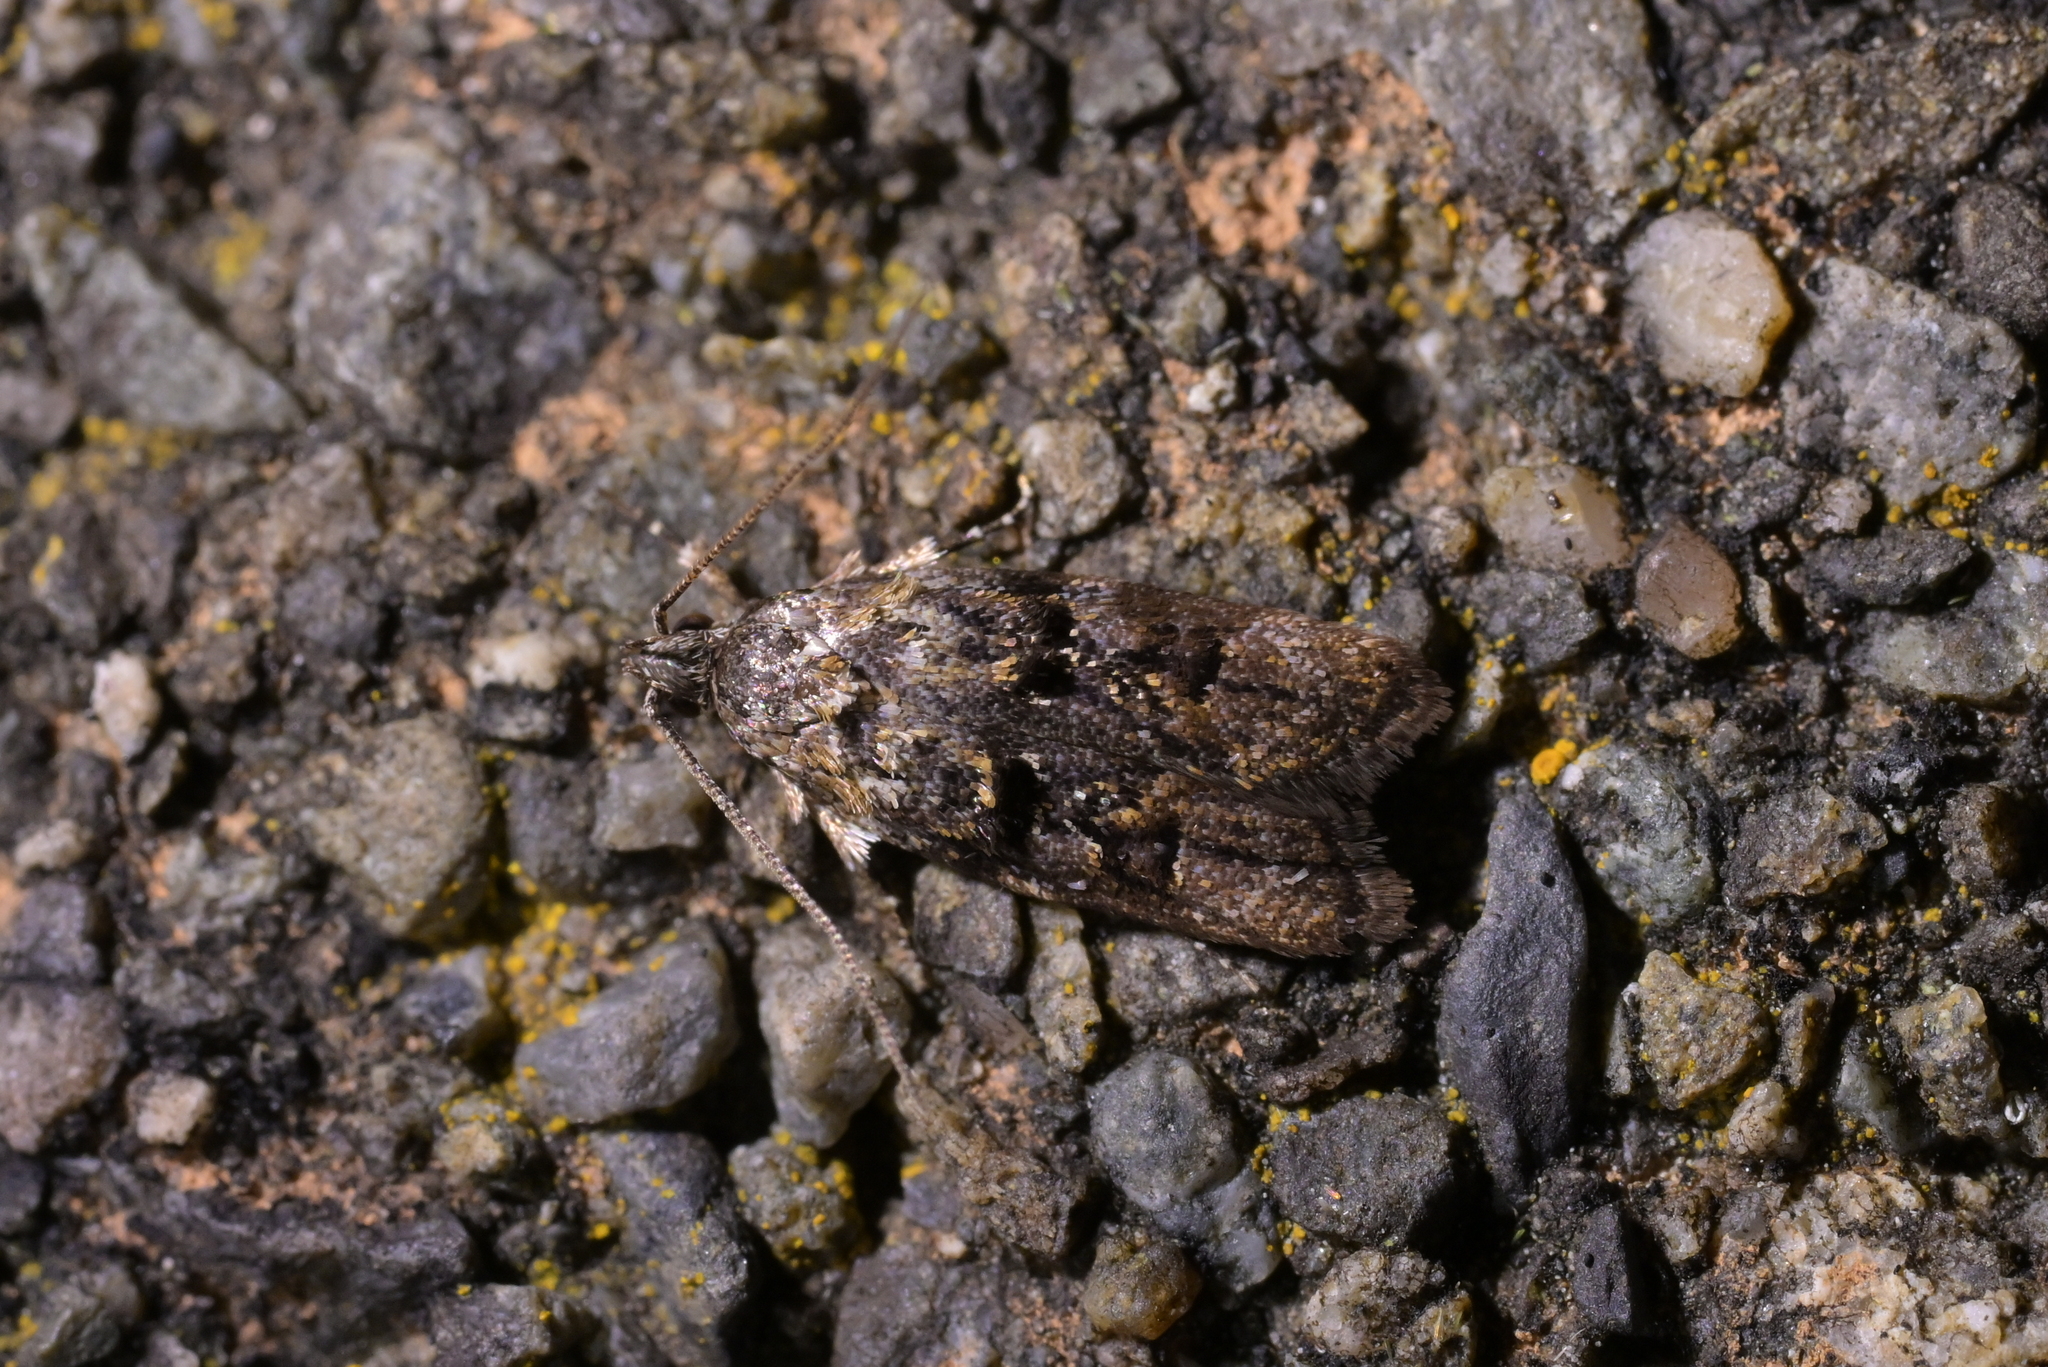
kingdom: Animalia
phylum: Arthropoda
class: Insecta
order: Lepidoptera
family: Oecophoridae
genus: Izatha
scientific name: Izatha metadelta
